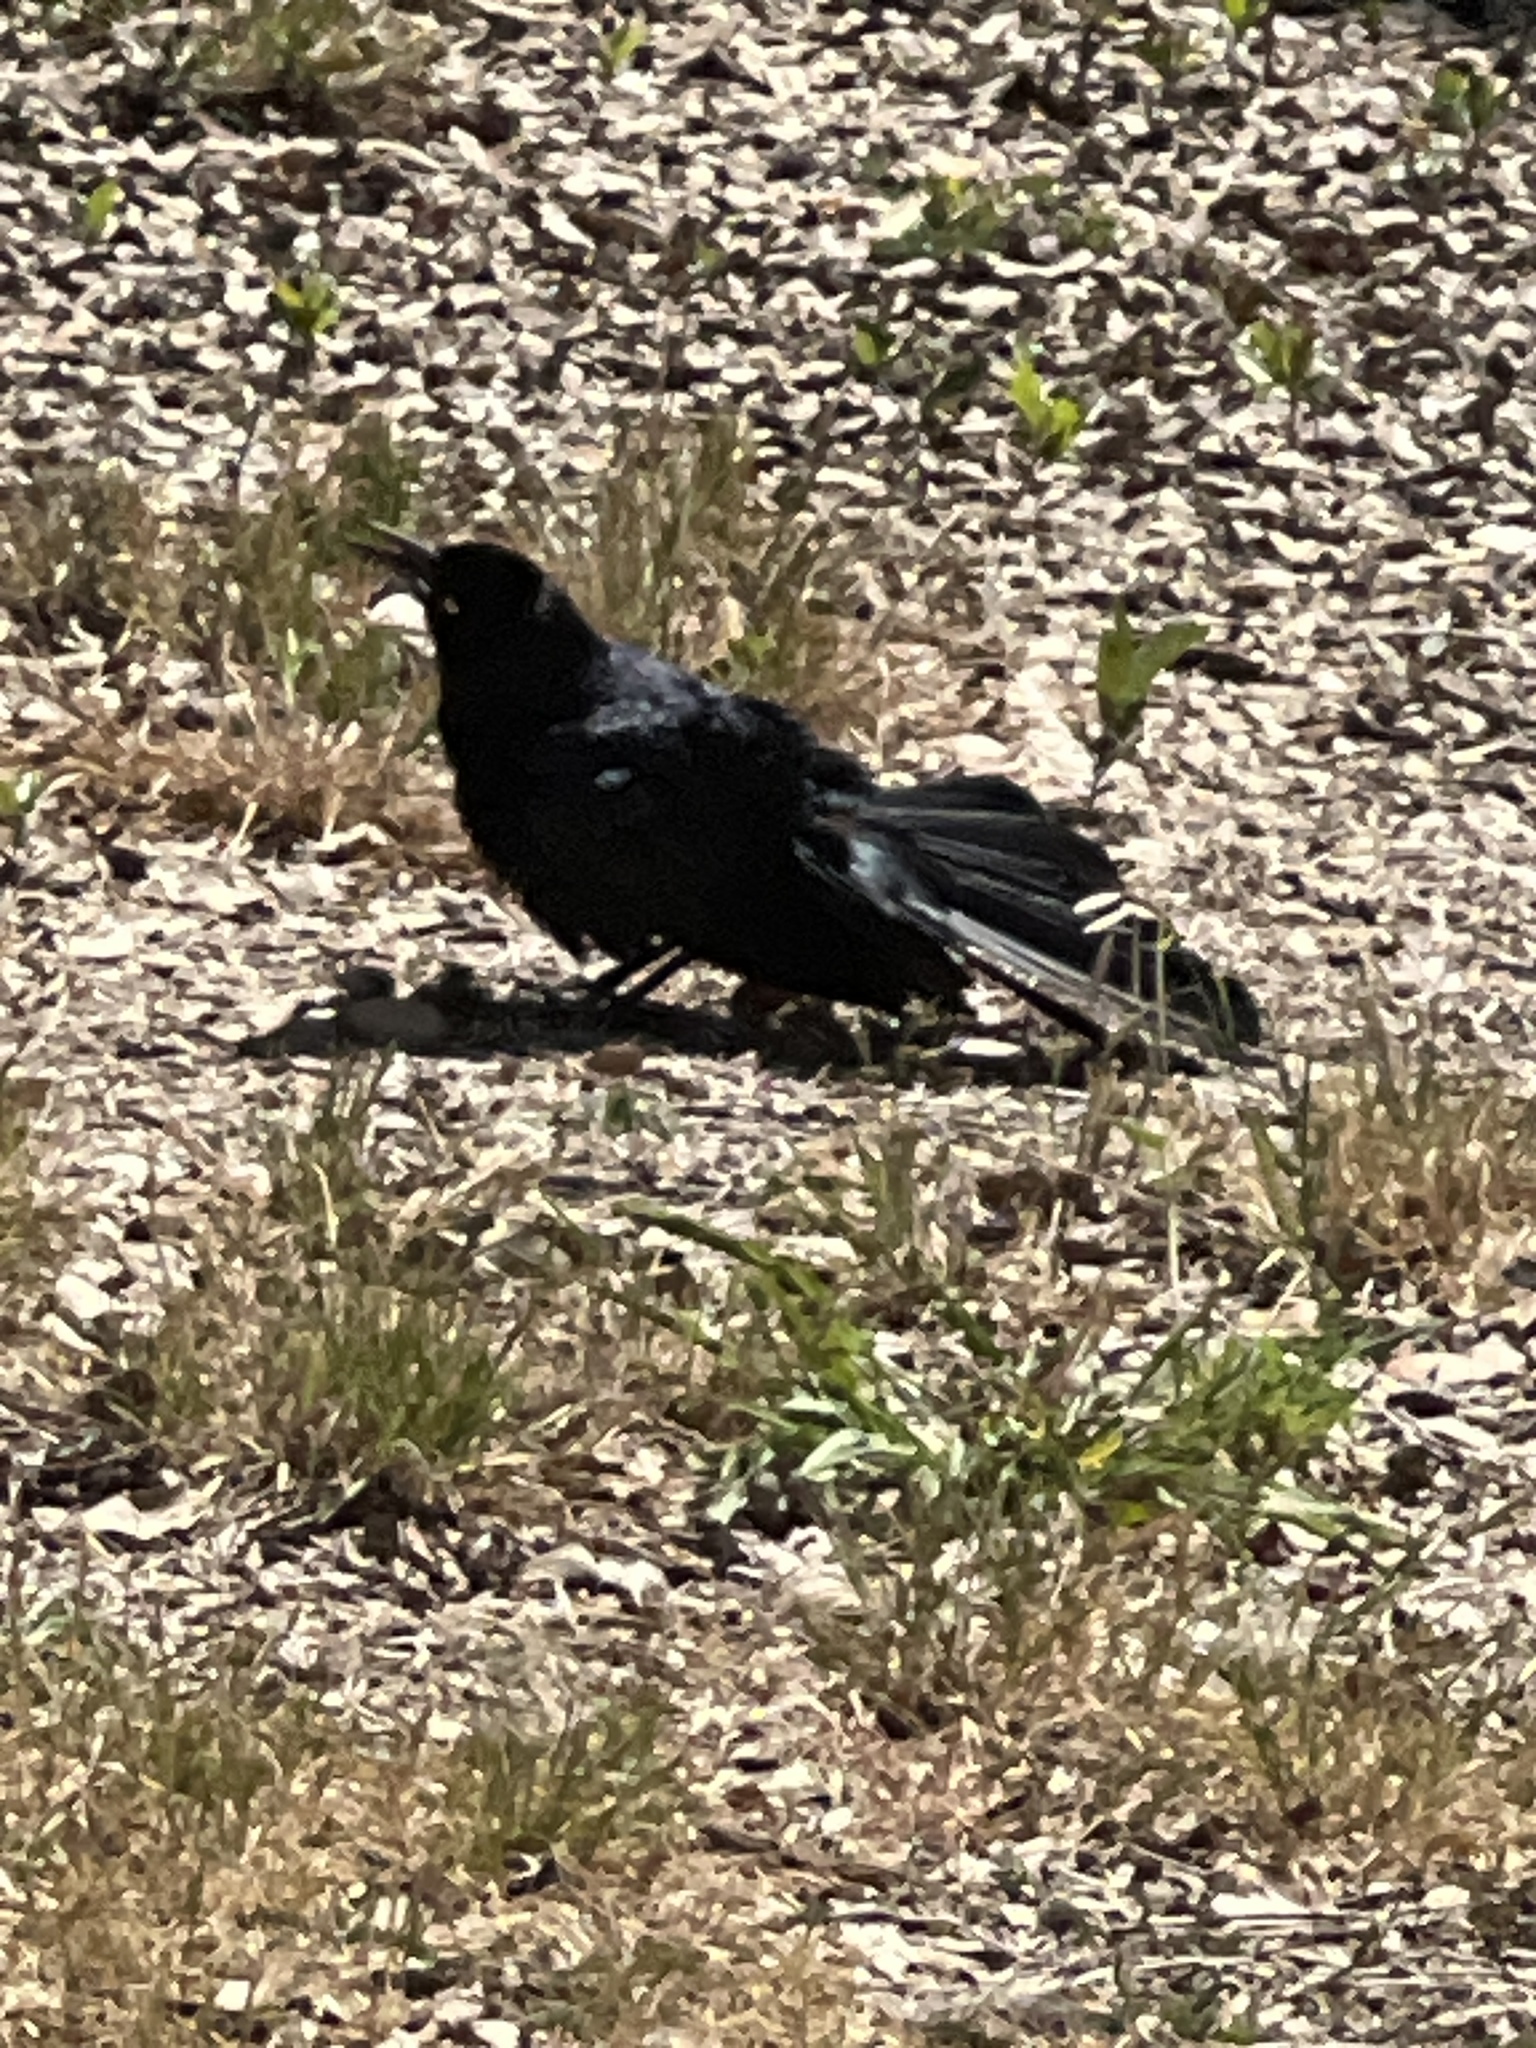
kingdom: Animalia
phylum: Chordata
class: Aves
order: Passeriformes
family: Icteridae
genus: Quiscalus
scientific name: Quiscalus mexicanus
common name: Great-tailed grackle
